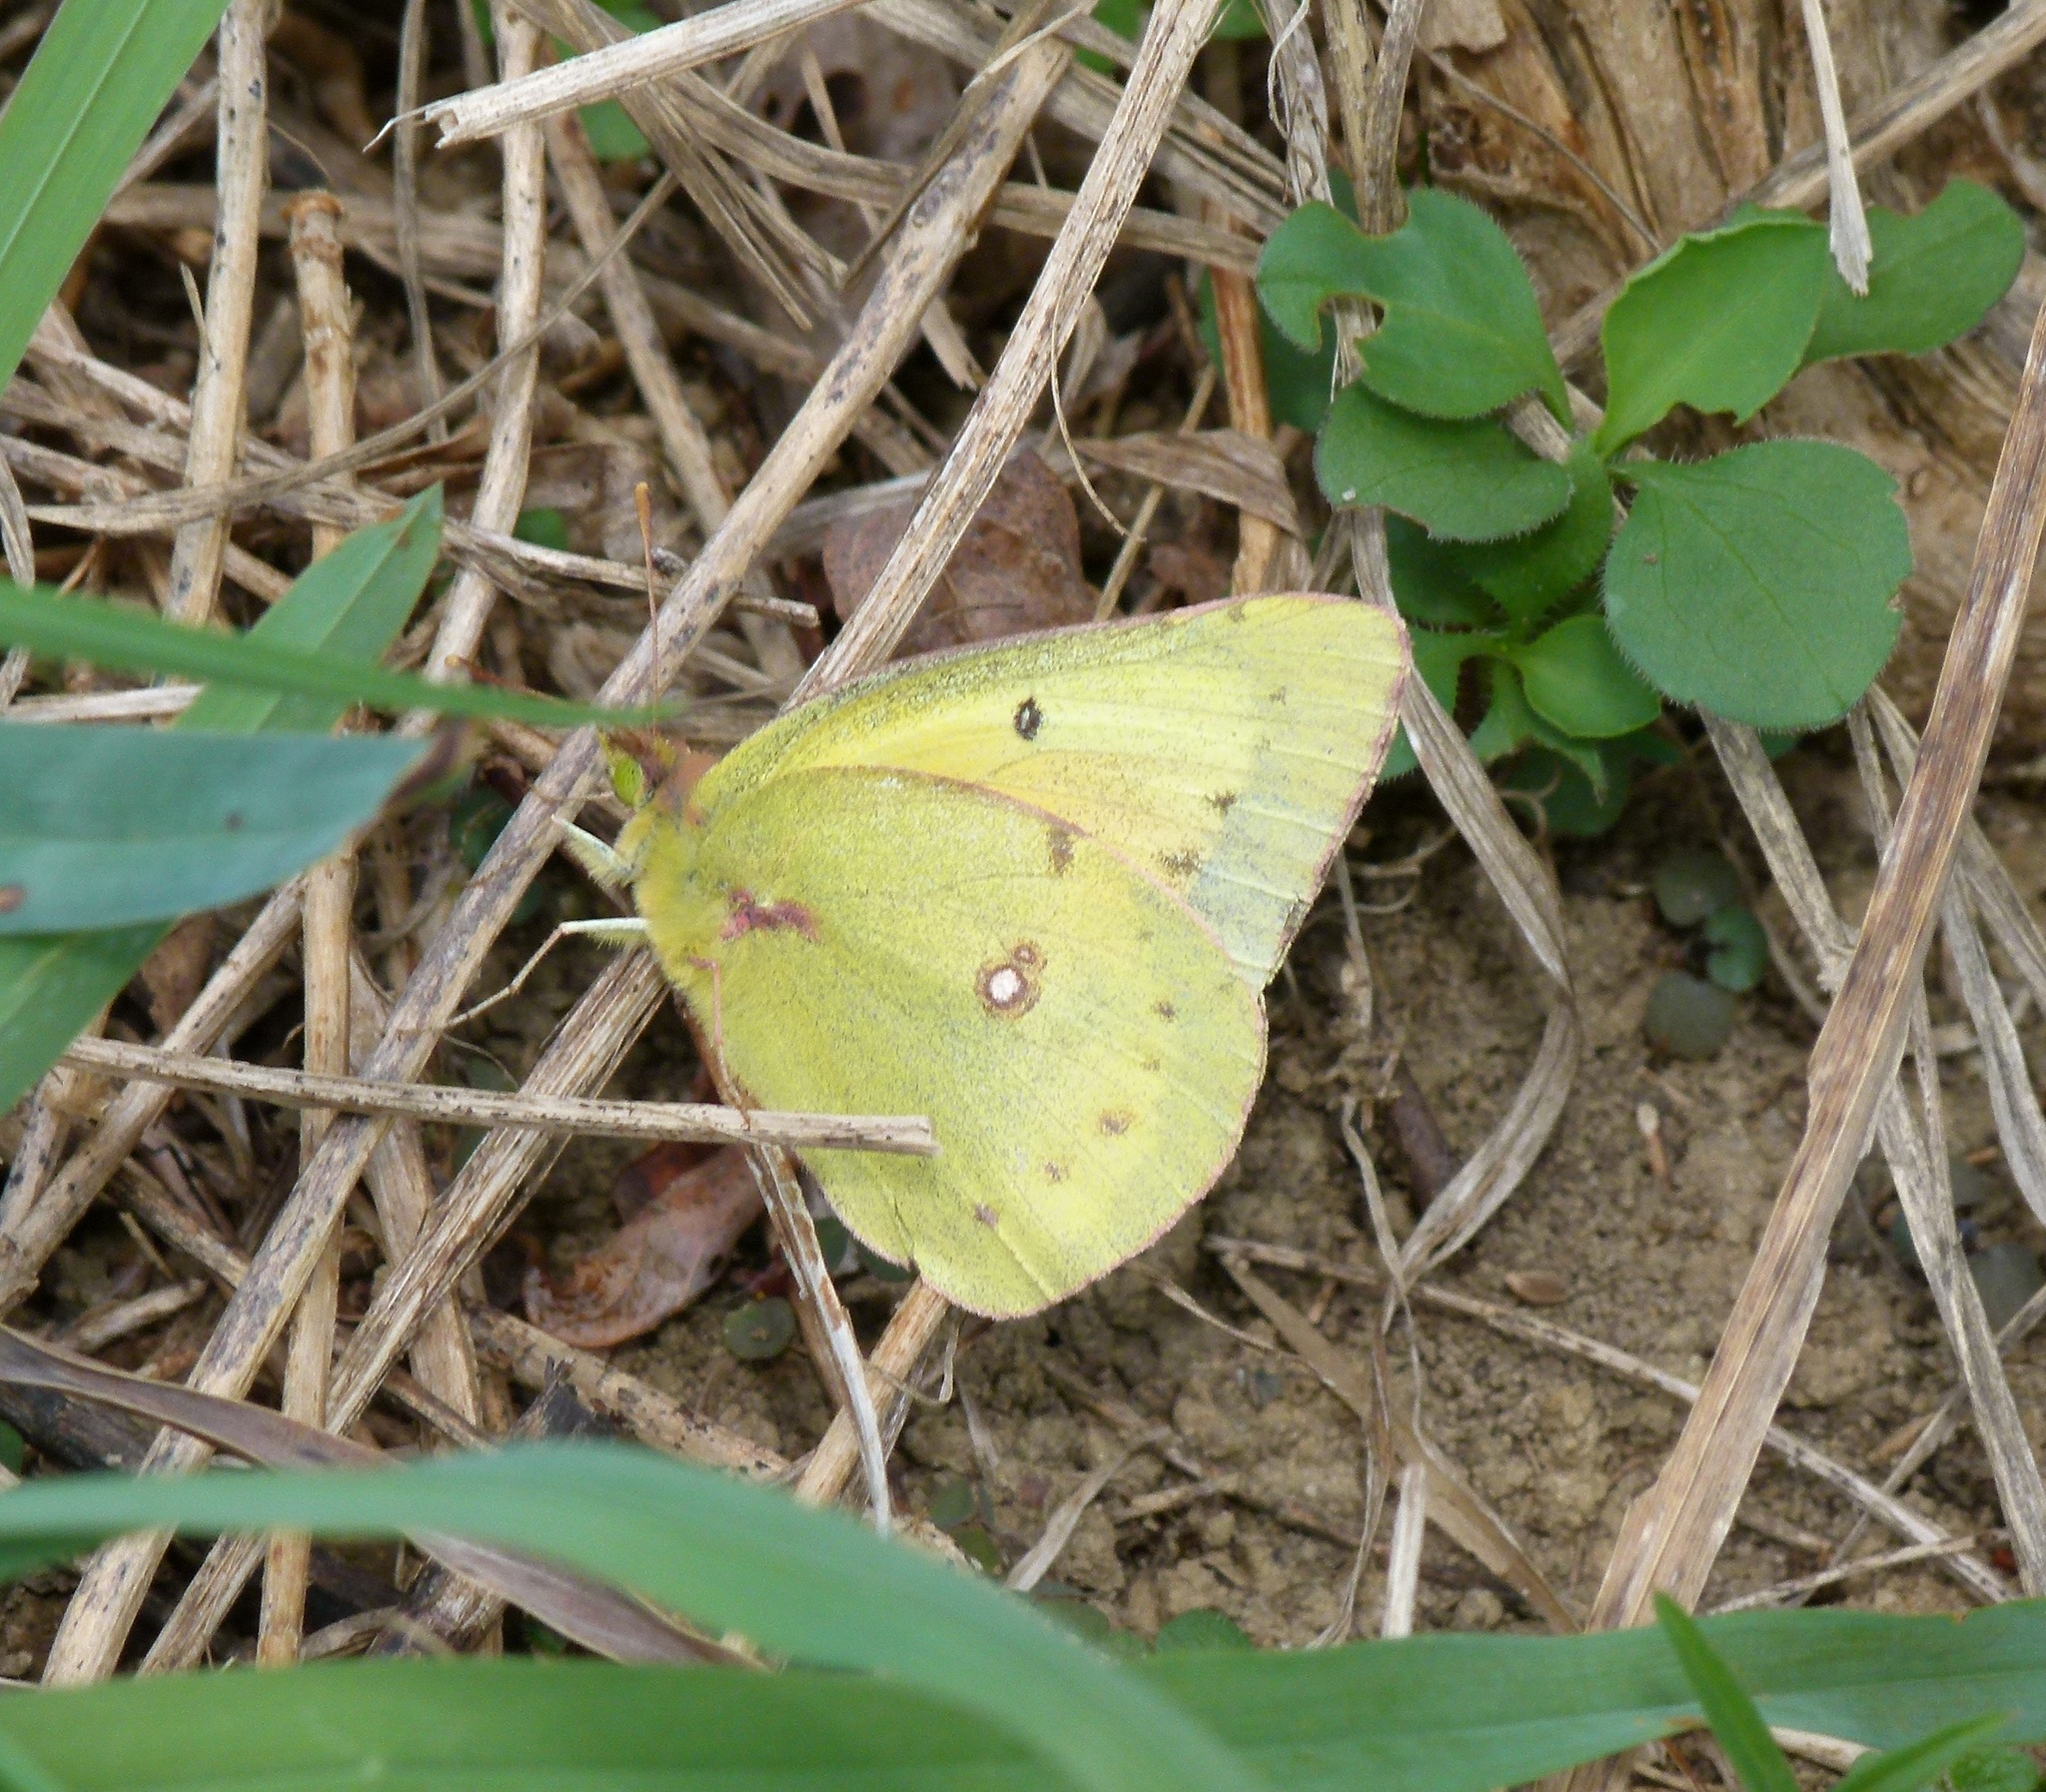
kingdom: Animalia
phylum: Arthropoda
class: Insecta
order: Lepidoptera
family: Pieridae
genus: Colias
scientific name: Colias philodice
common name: Clouded sulphur
